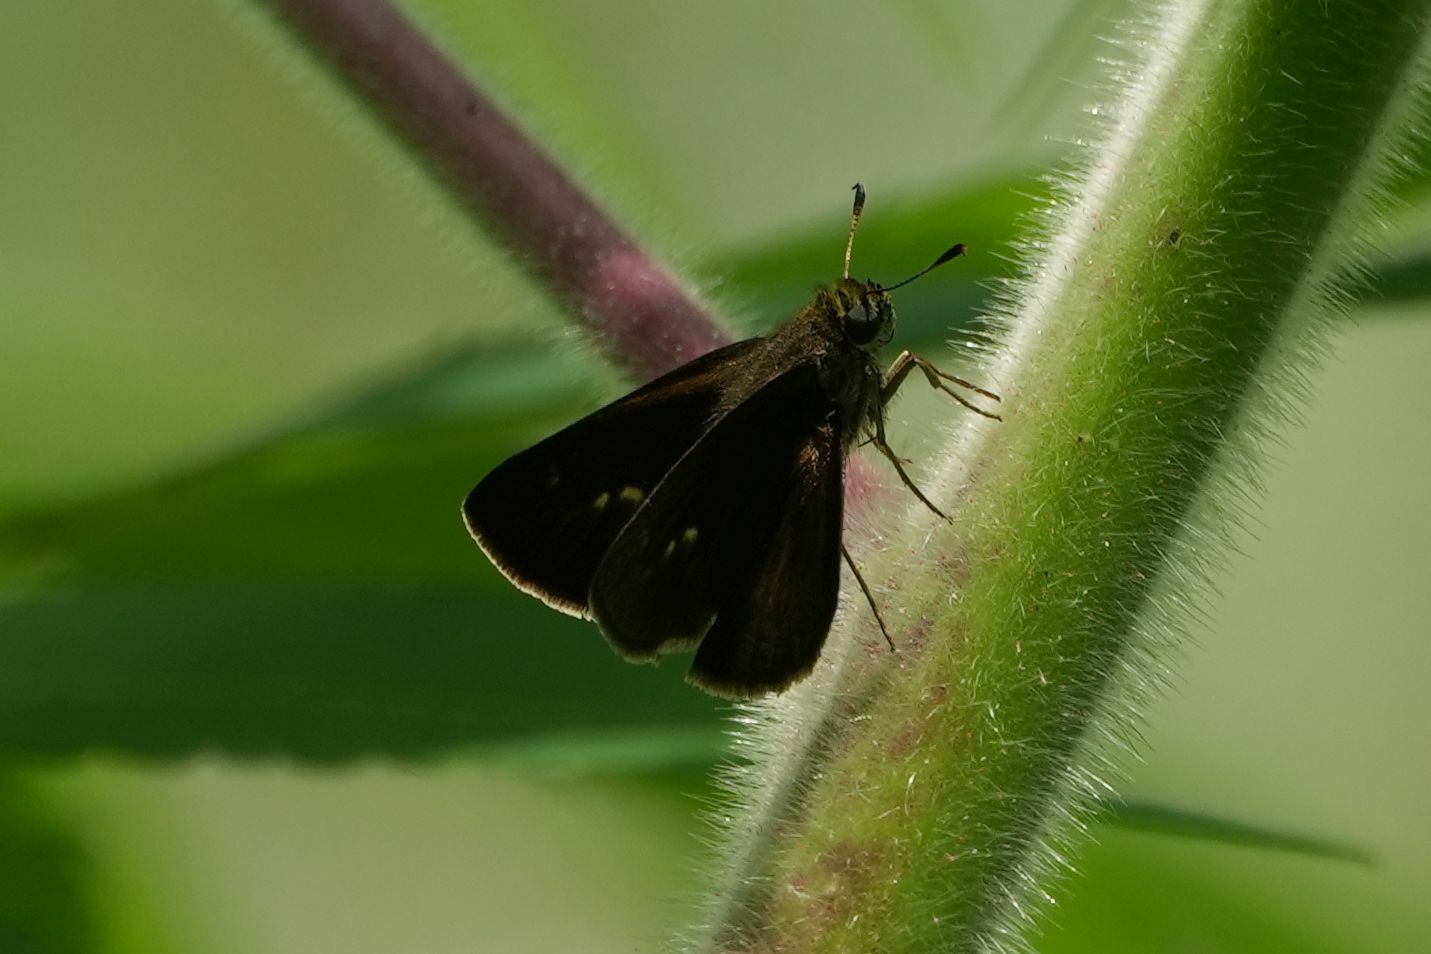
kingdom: Animalia
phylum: Arthropoda
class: Insecta
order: Lepidoptera
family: Hesperiidae
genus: Euphyes
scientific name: Euphyes vestris
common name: Dun skipper
